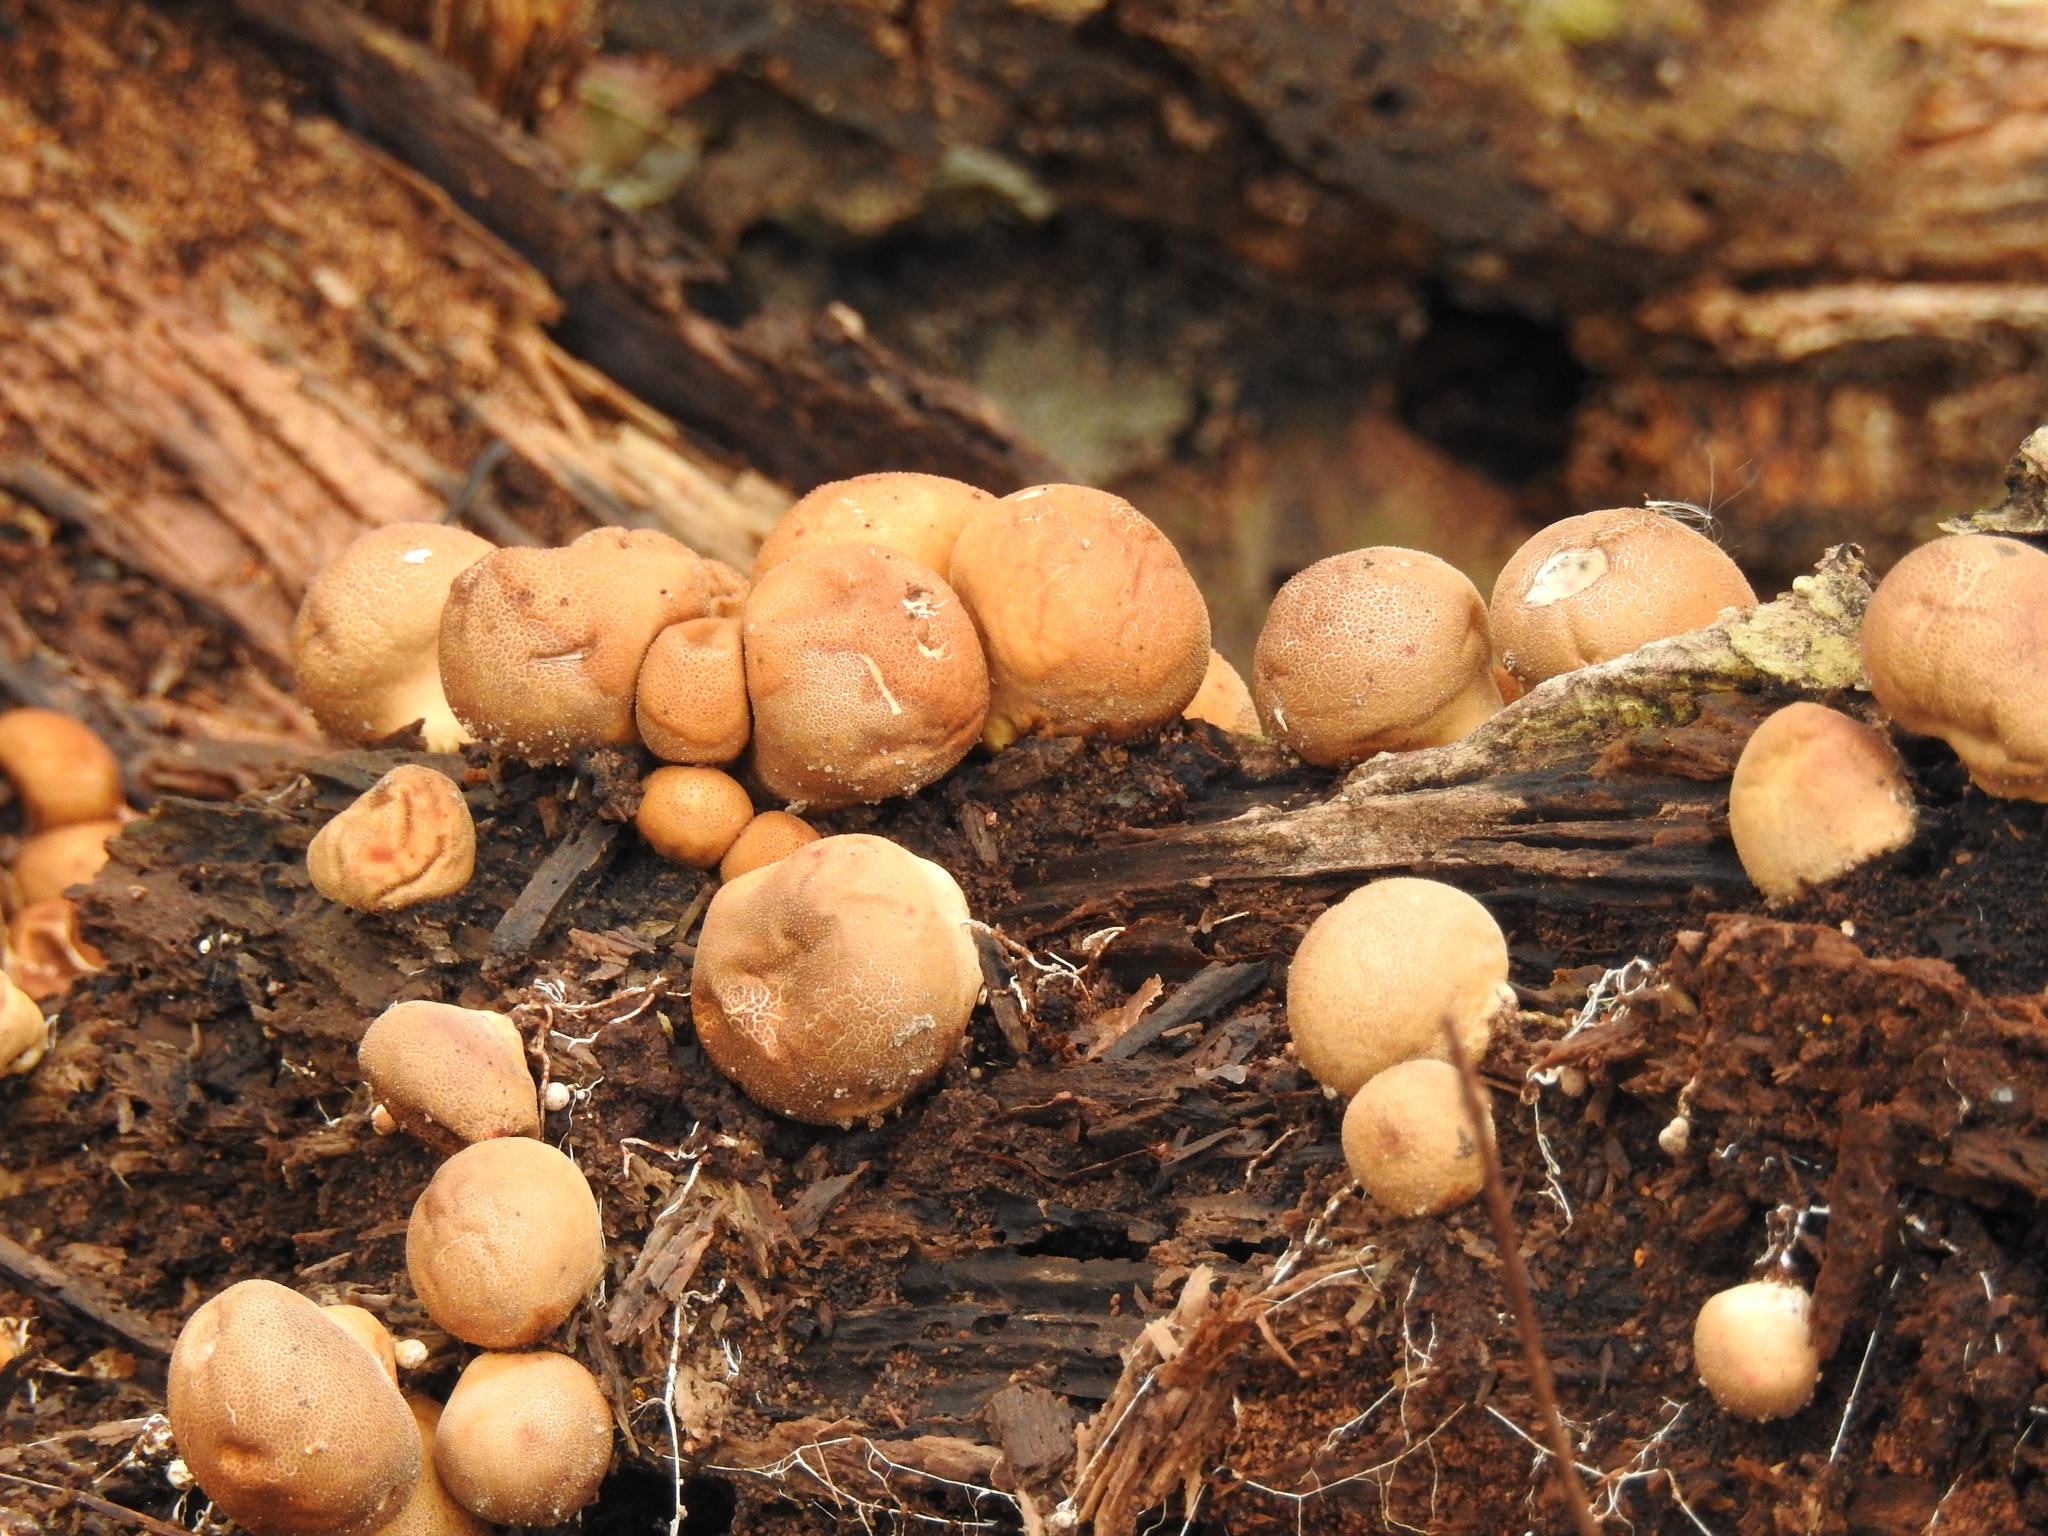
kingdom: Fungi
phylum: Basidiomycota
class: Agaricomycetes
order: Agaricales
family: Lycoperdaceae
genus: Apioperdon
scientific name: Apioperdon pyriforme
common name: Pear-shaped puffball
